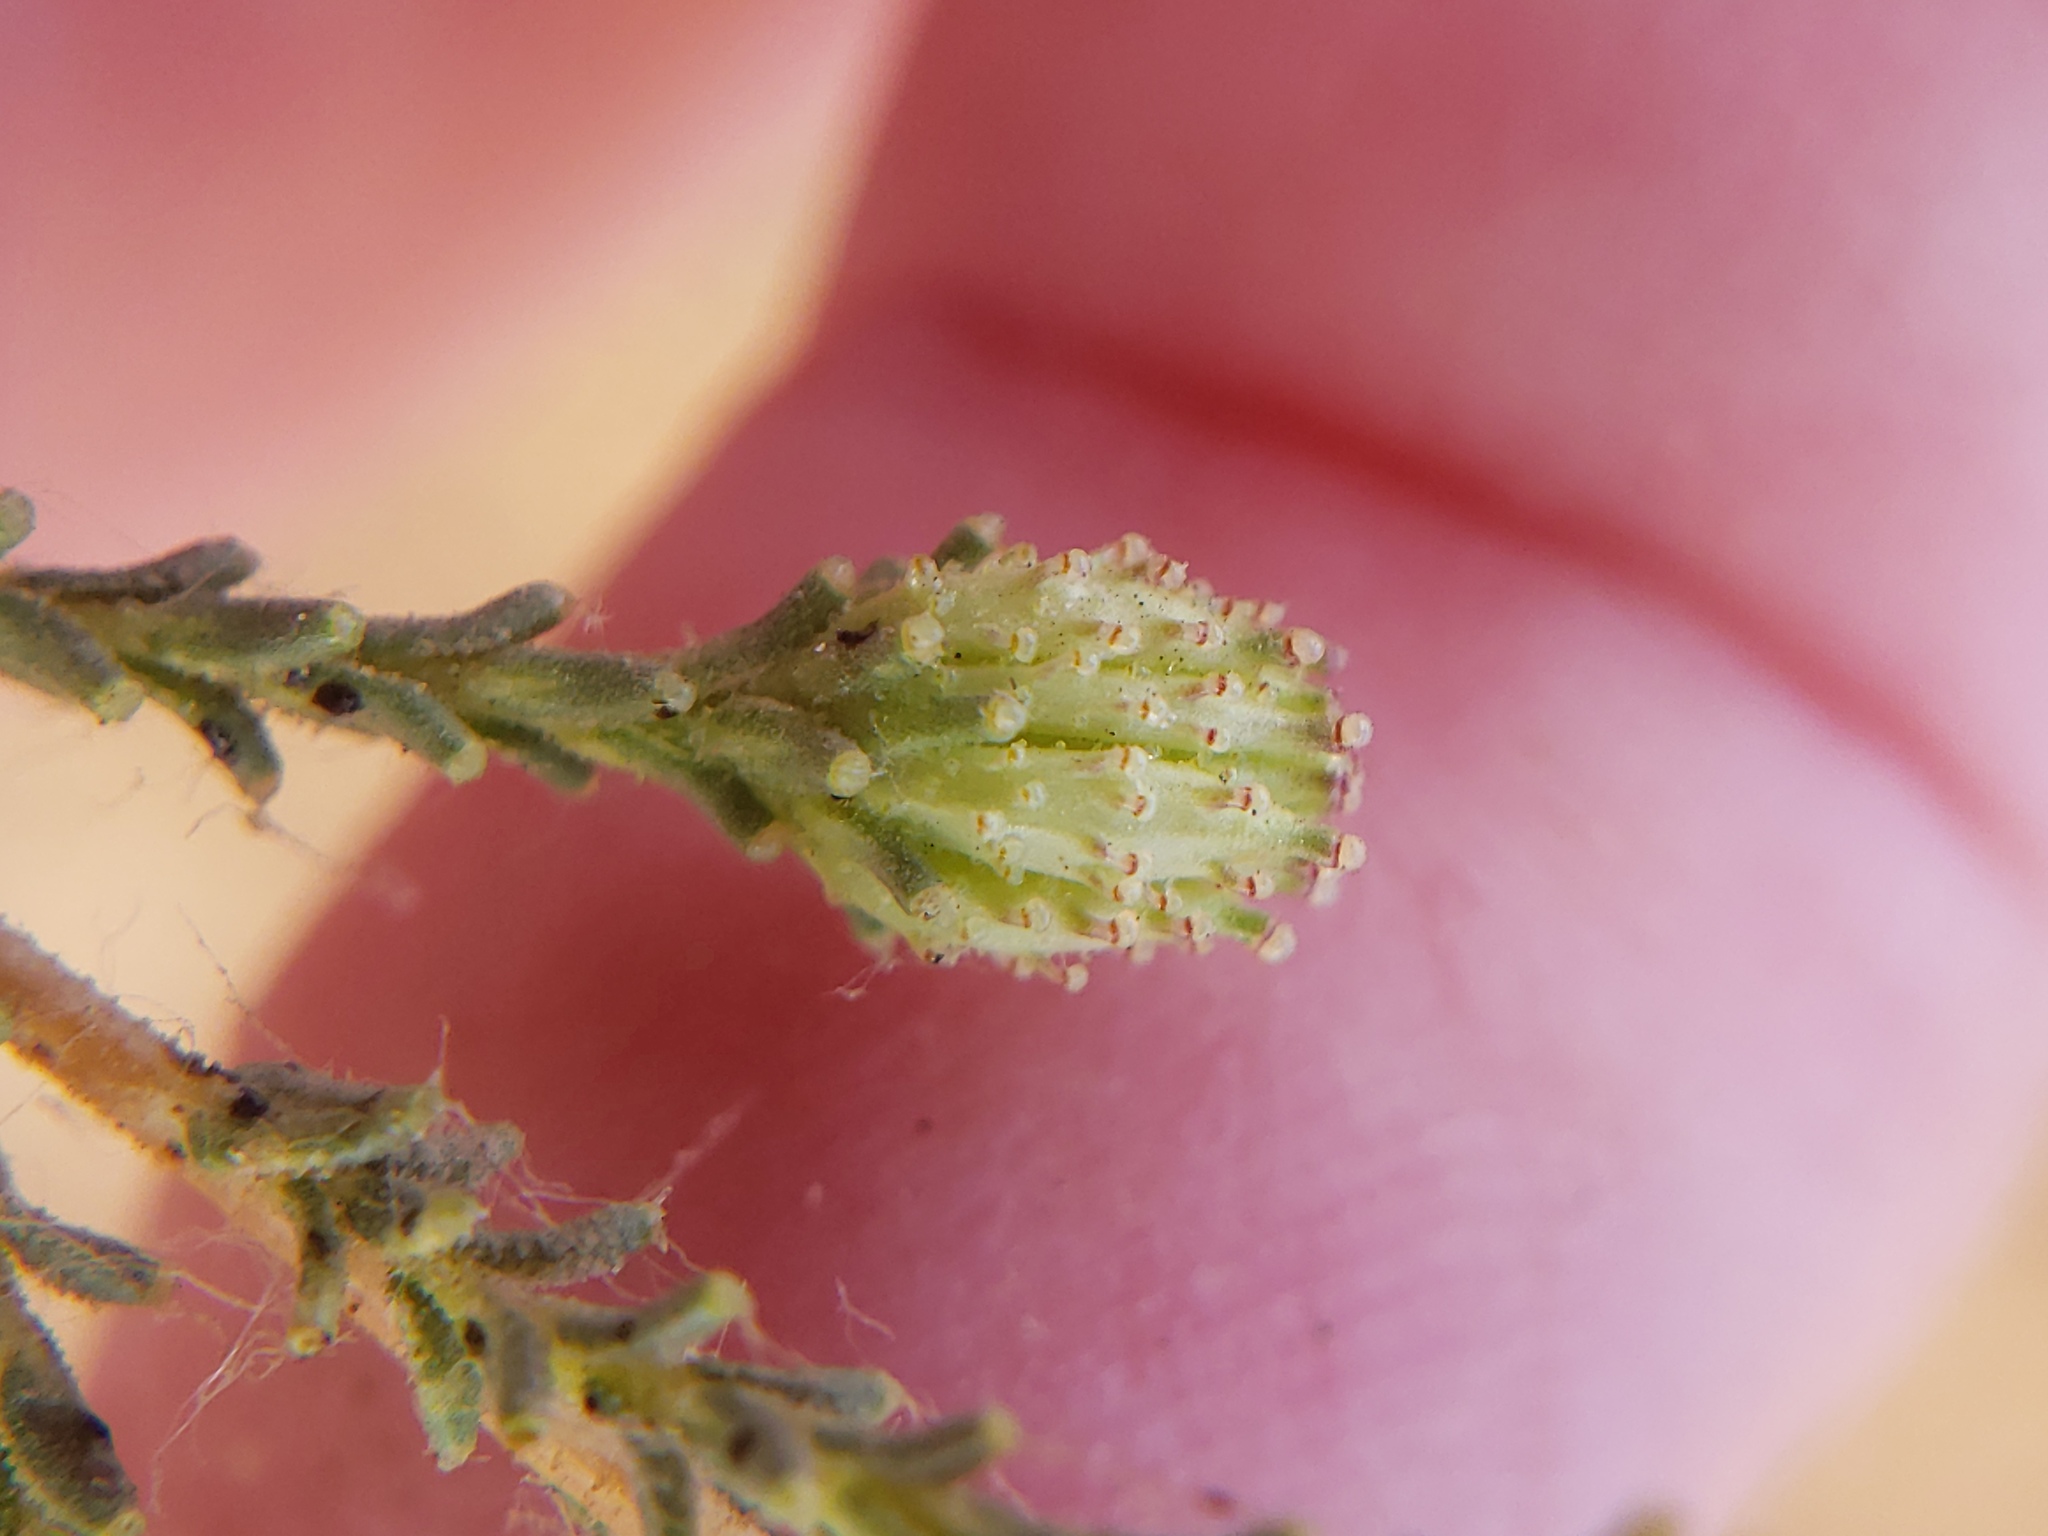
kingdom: Plantae
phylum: Tracheophyta
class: Magnoliopsida
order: Asterales
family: Asteraceae
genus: Holocarpha
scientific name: Holocarpha virgata
